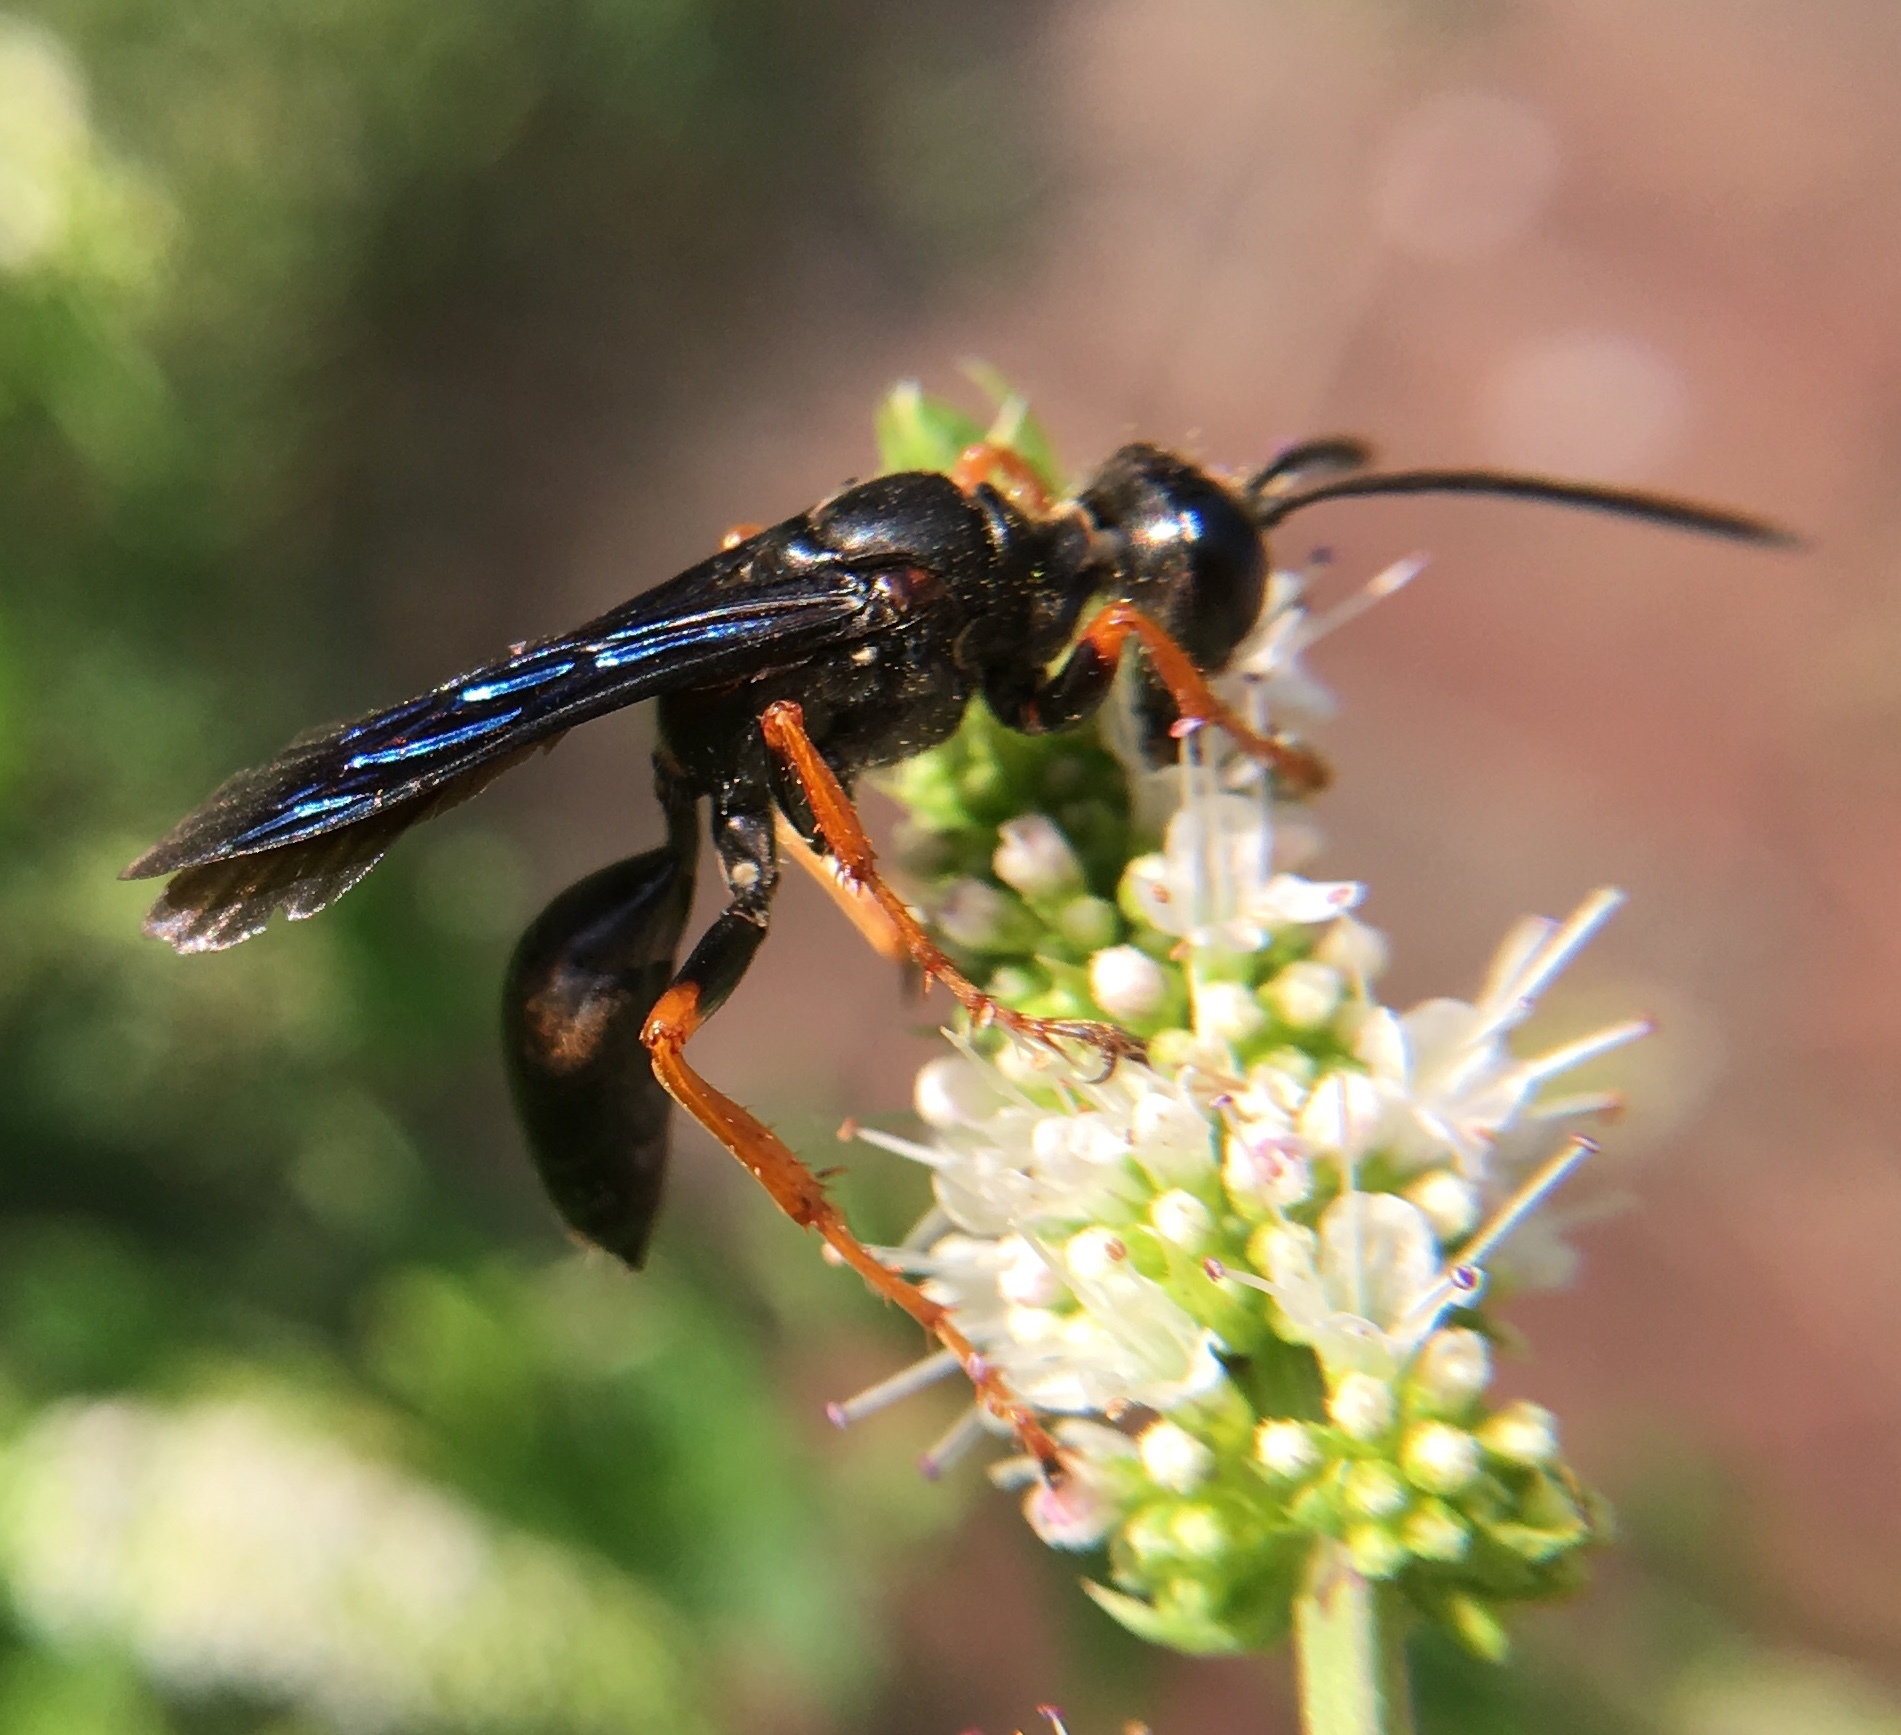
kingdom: Animalia
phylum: Arthropoda
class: Insecta
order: Hymenoptera
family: Sphecidae
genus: Sphex
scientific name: Sphex nudus
